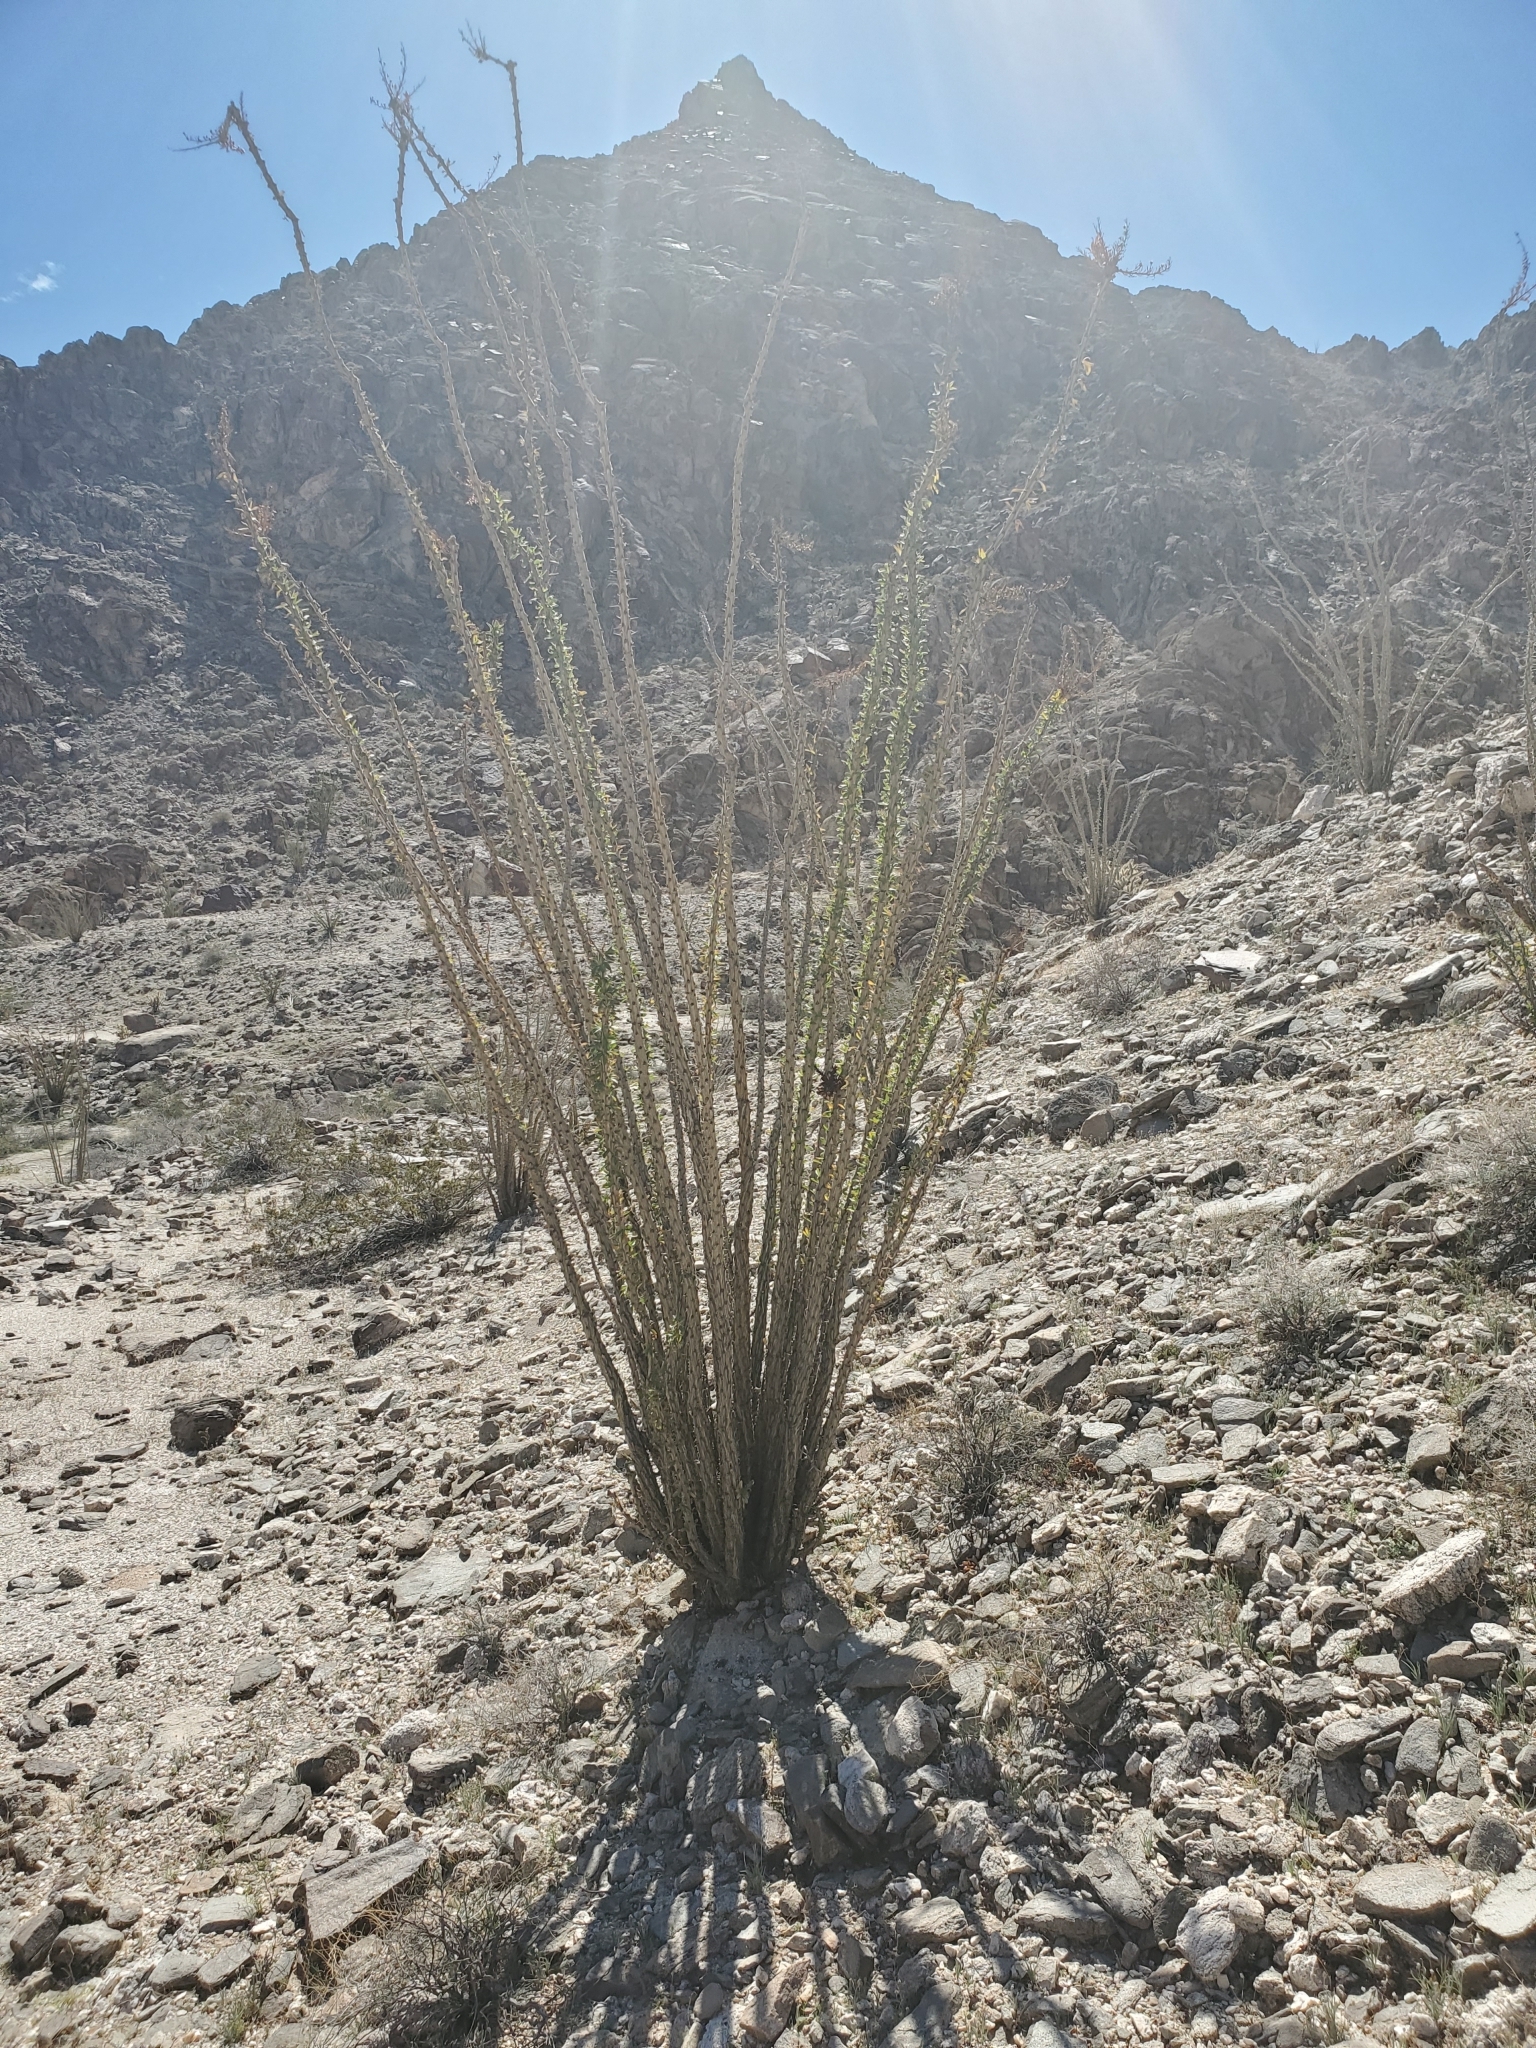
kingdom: Plantae
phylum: Tracheophyta
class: Magnoliopsida
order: Ericales
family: Fouquieriaceae
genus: Fouquieria
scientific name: Fouquieria splendens
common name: Vine-cactus
